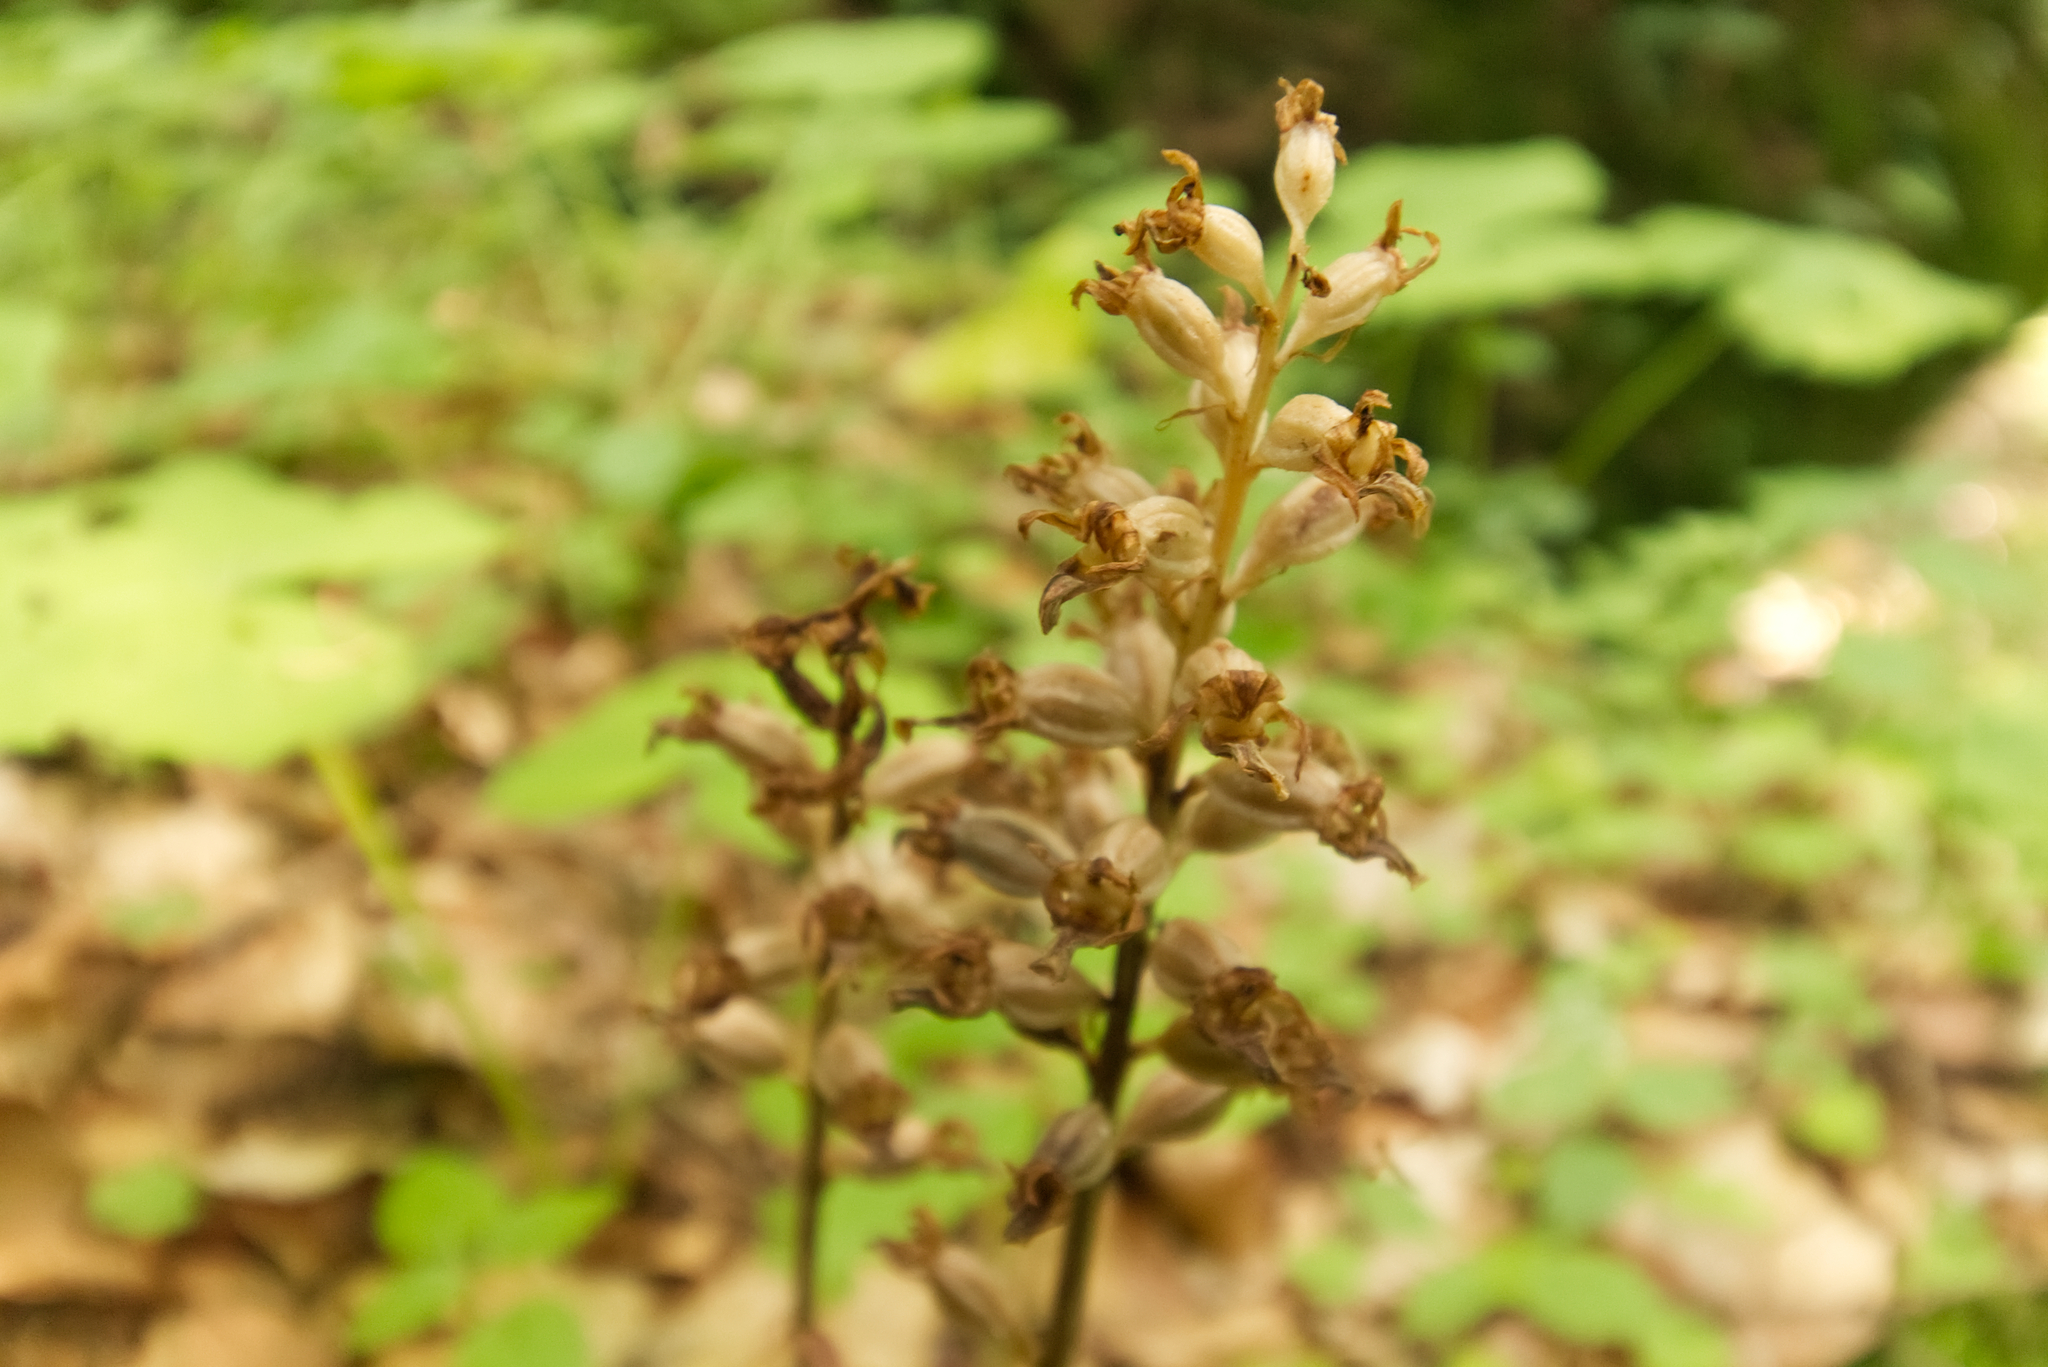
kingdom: Plantae
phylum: Tracheophyta
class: Liliopsida
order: Asparagales
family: Orchidaceae
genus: Neottia
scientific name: Neottia nidus-avis
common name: Bird's-nest orchid
